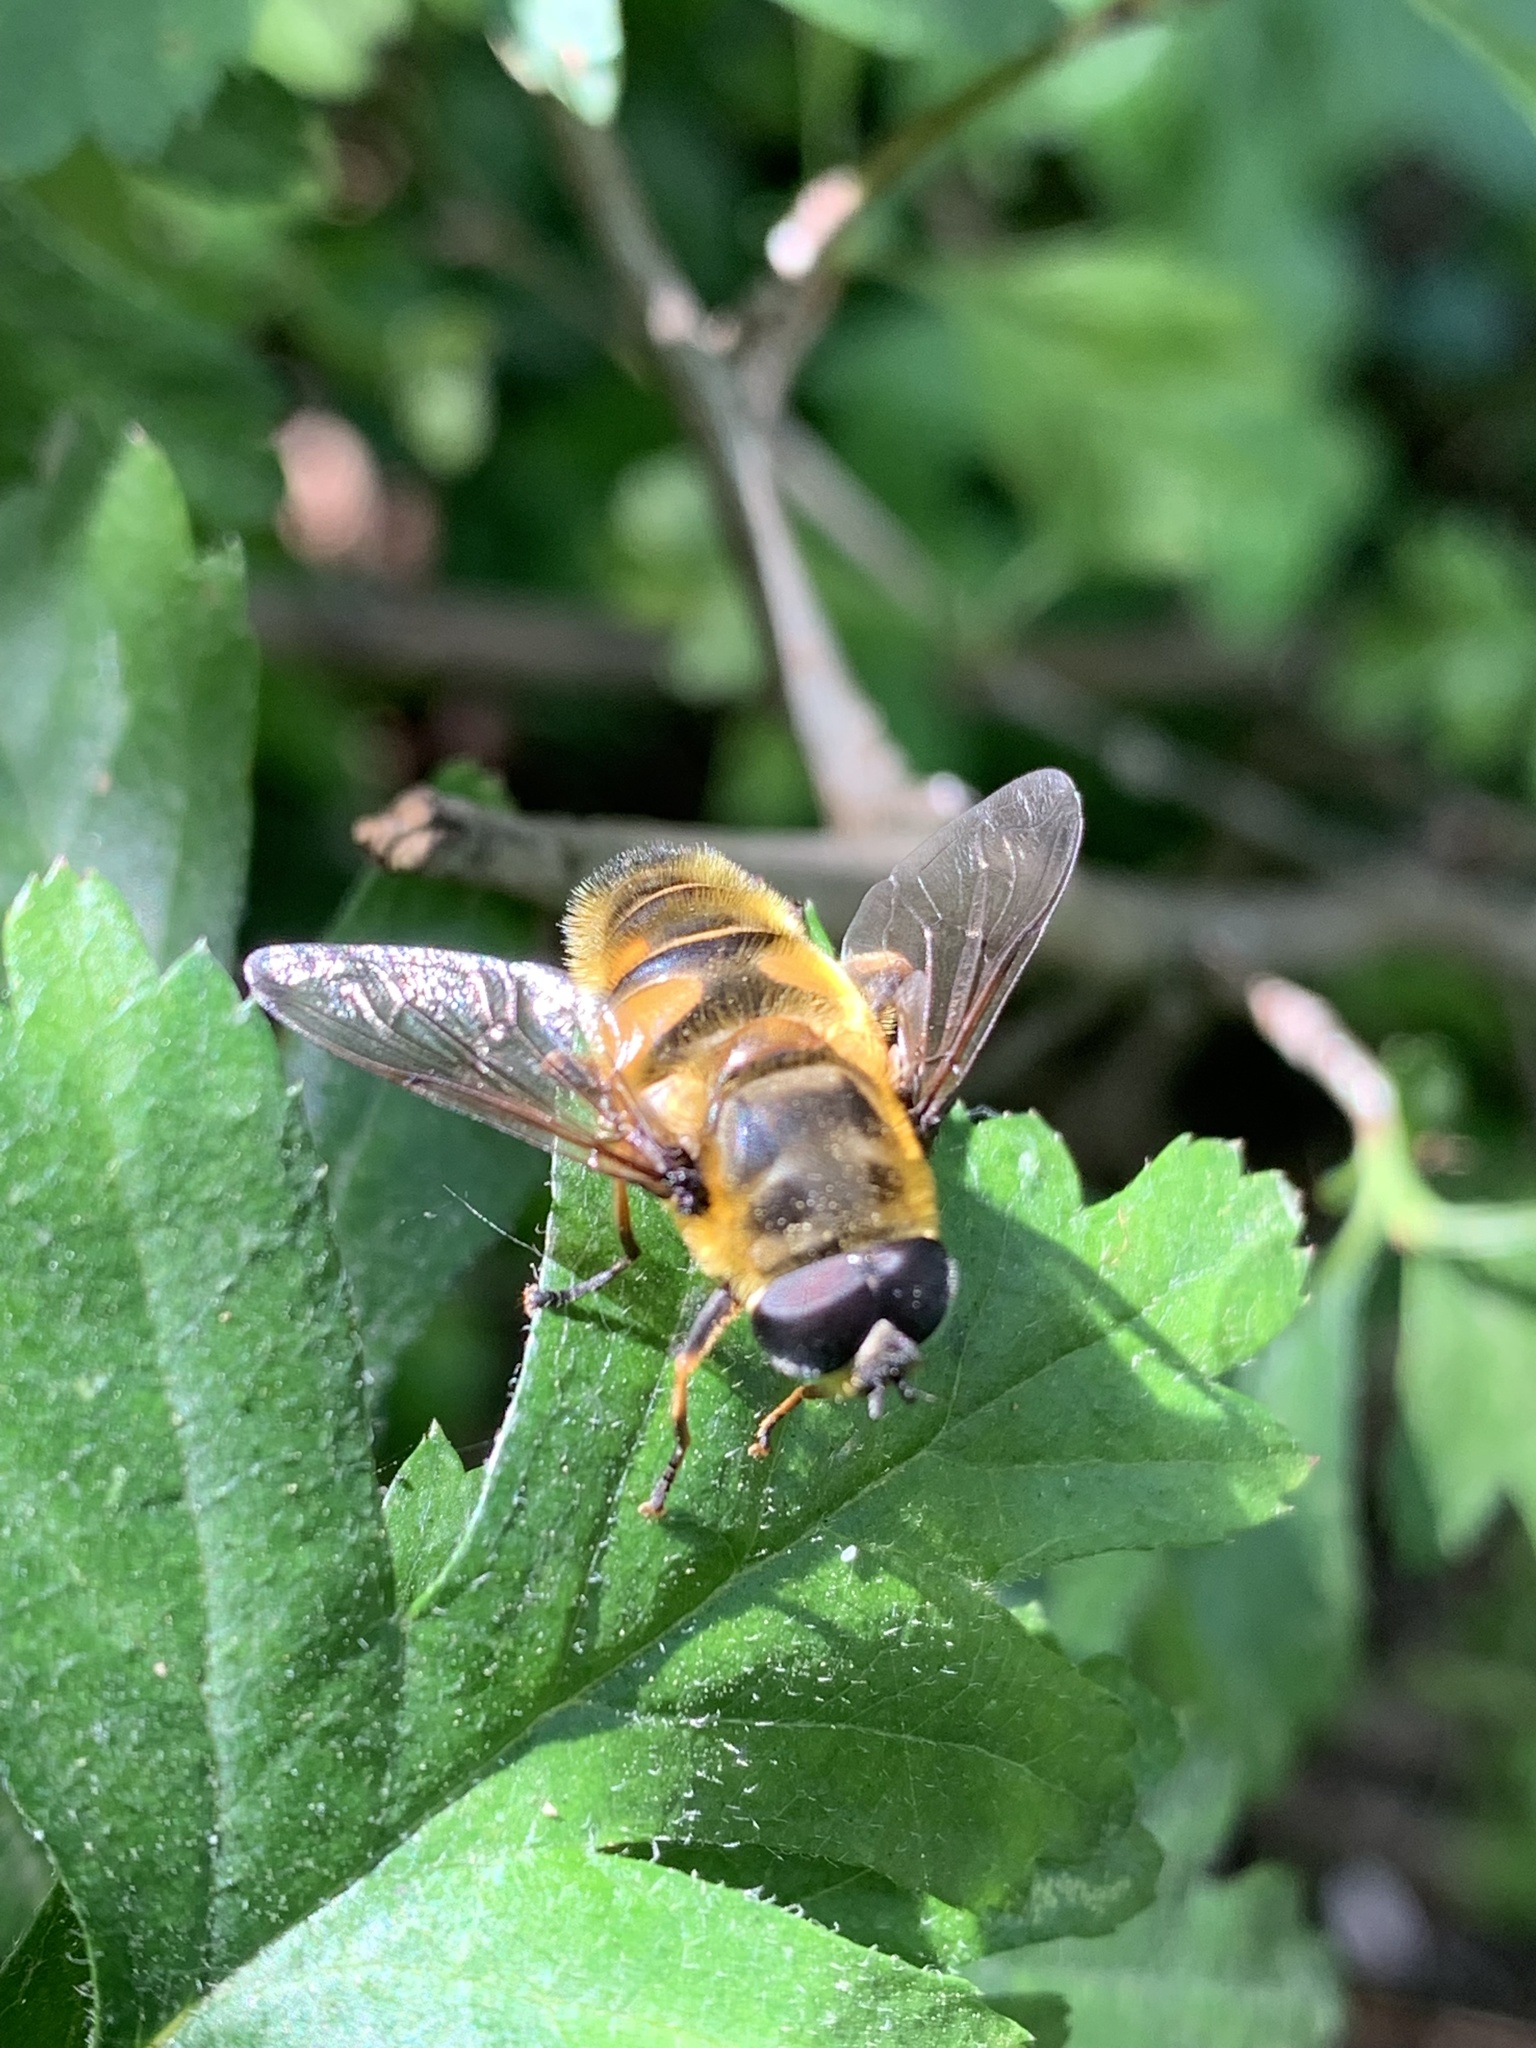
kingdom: Animalia
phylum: Arthropoda
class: Insecta
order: Diptera
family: Syrphidae
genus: Myathropa
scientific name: Myathropa florea
